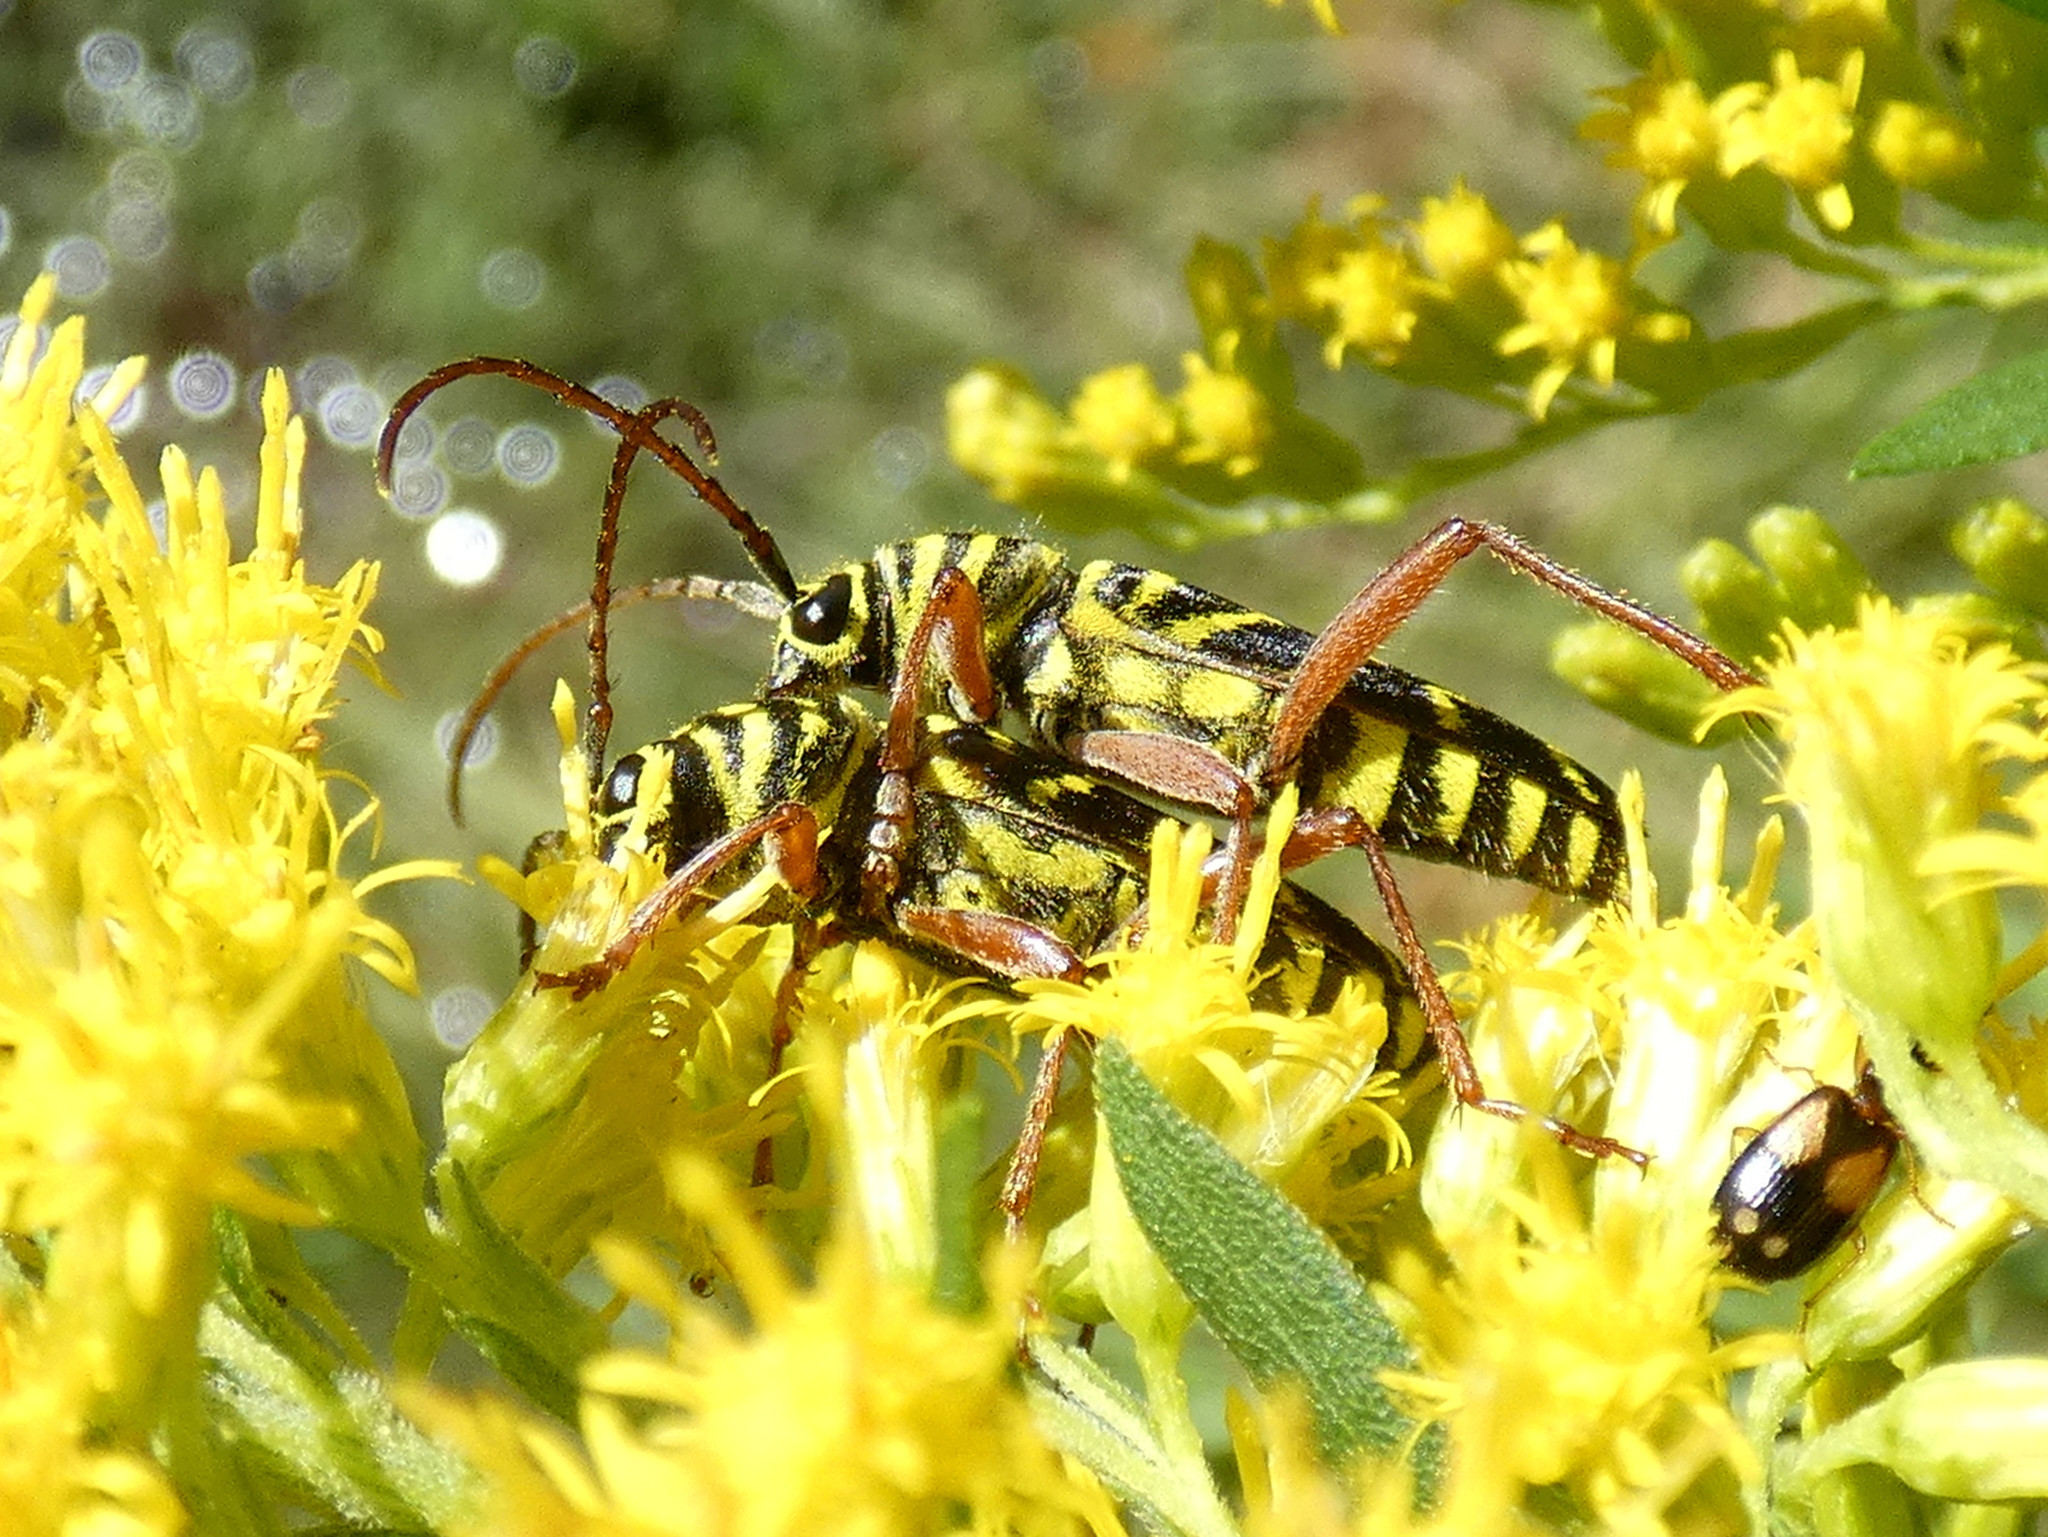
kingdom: Animalia
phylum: Arthropoda
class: Insecta
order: Coleoptera
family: Cerambycidae
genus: Megacyllene
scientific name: Megacyllene robiniae
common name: Locust borer
